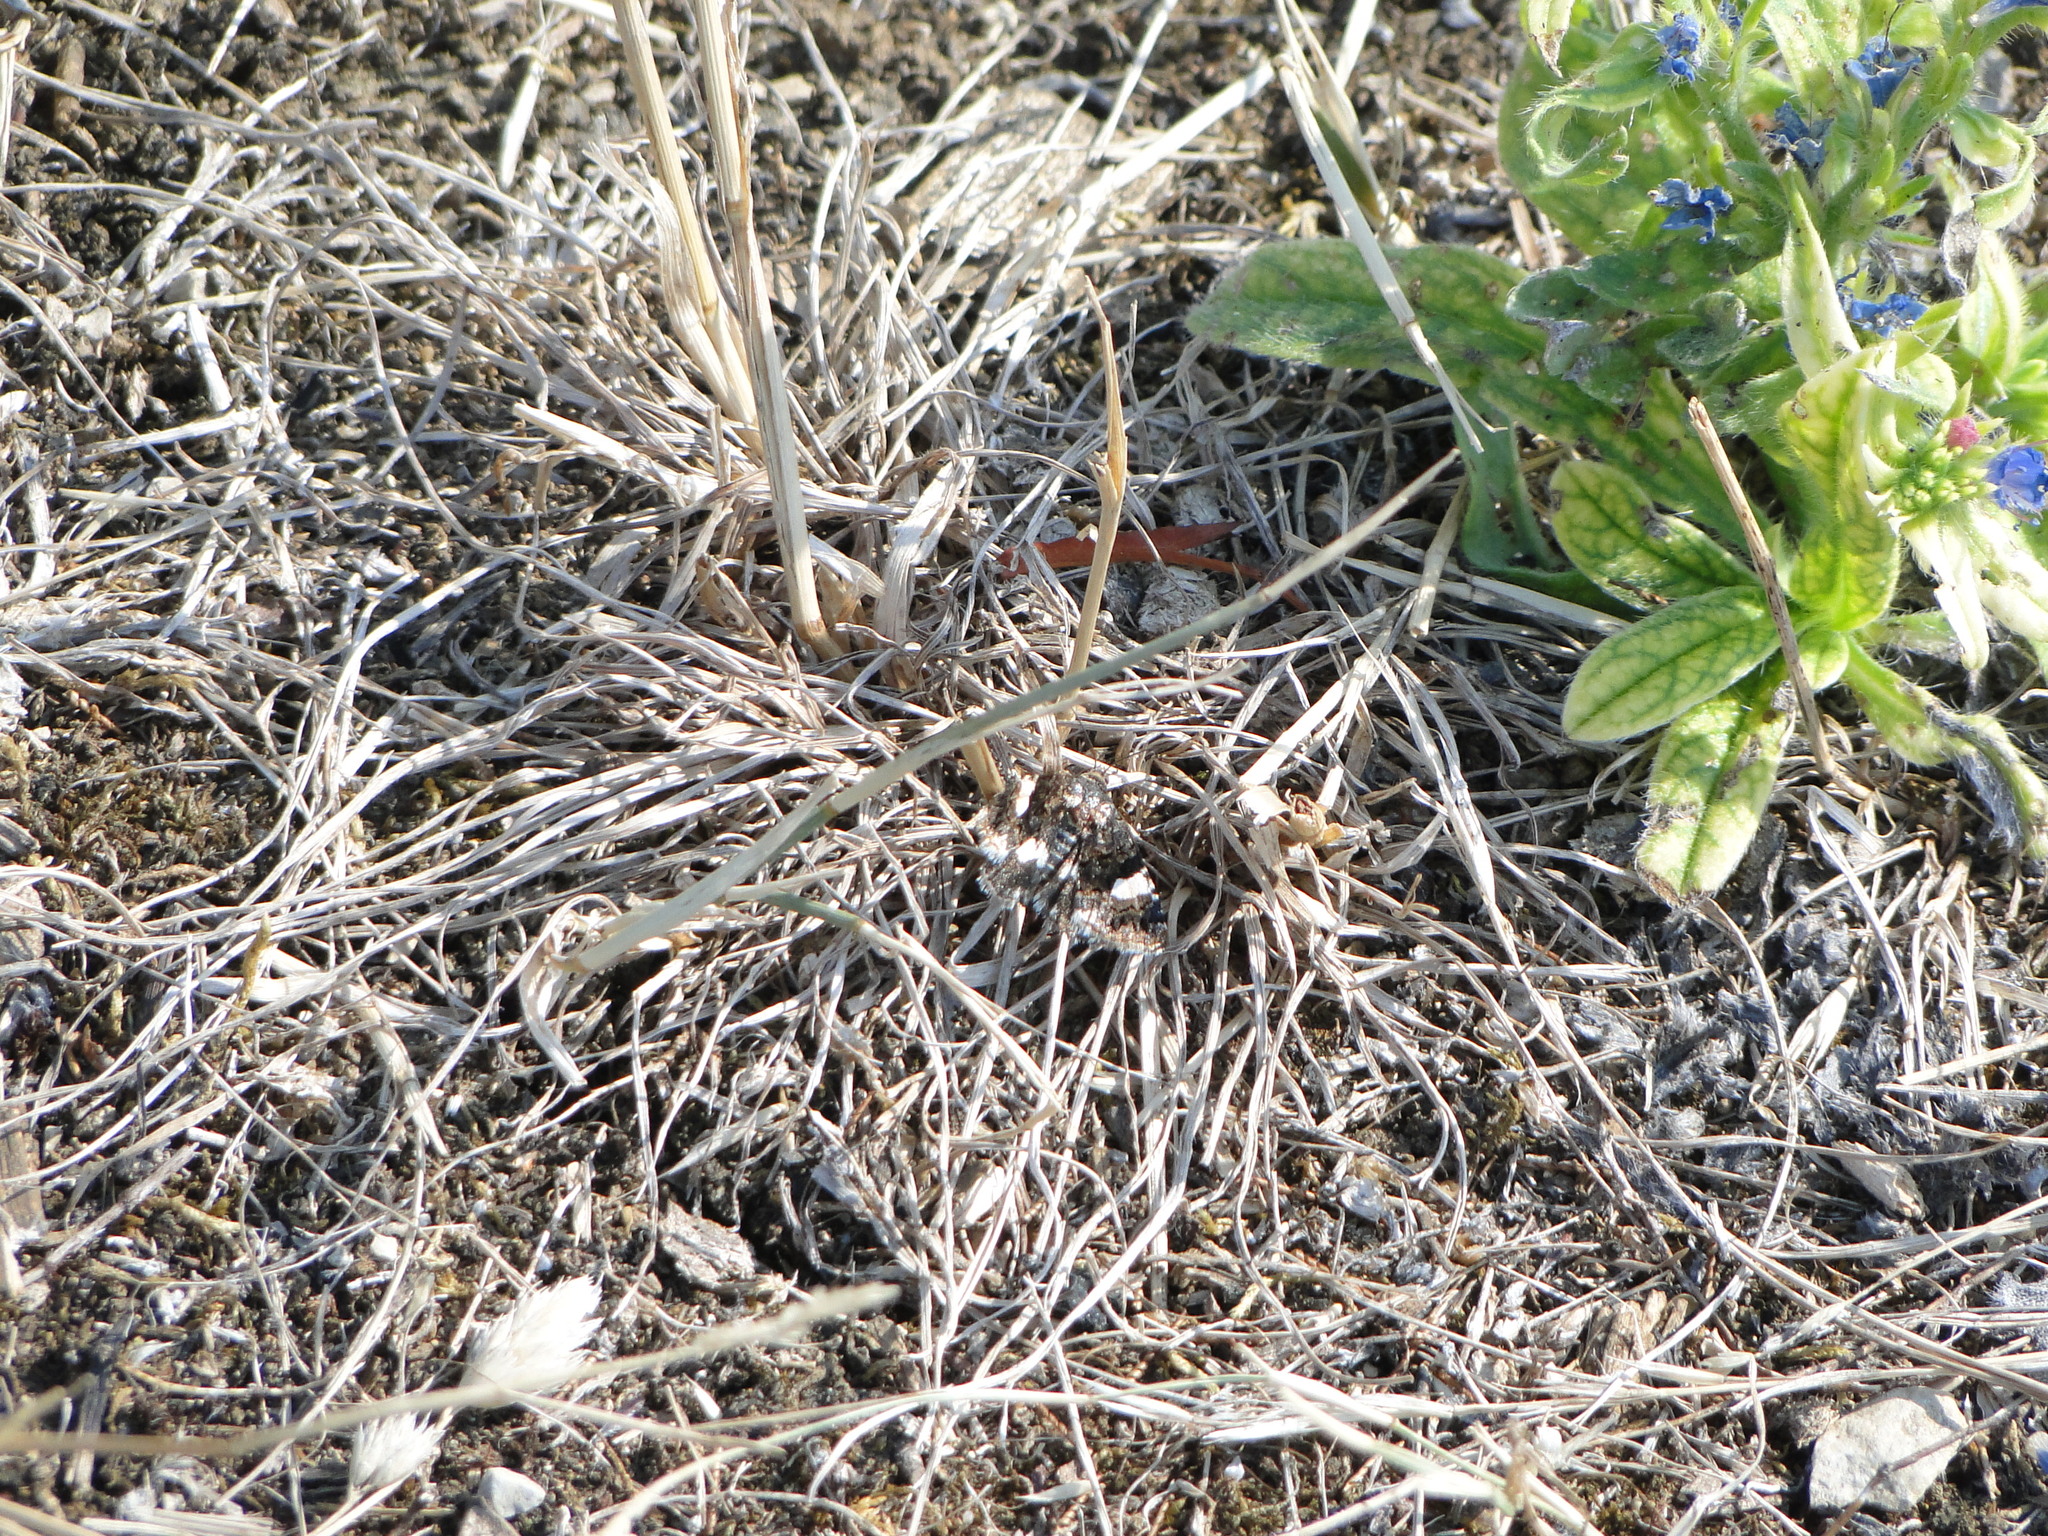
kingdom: Animalia
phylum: Arthropoda
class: Insecta
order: Lepidoptera
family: Erebidae
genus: Tyta
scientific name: Tyta luctuosa
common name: Four-spotted
